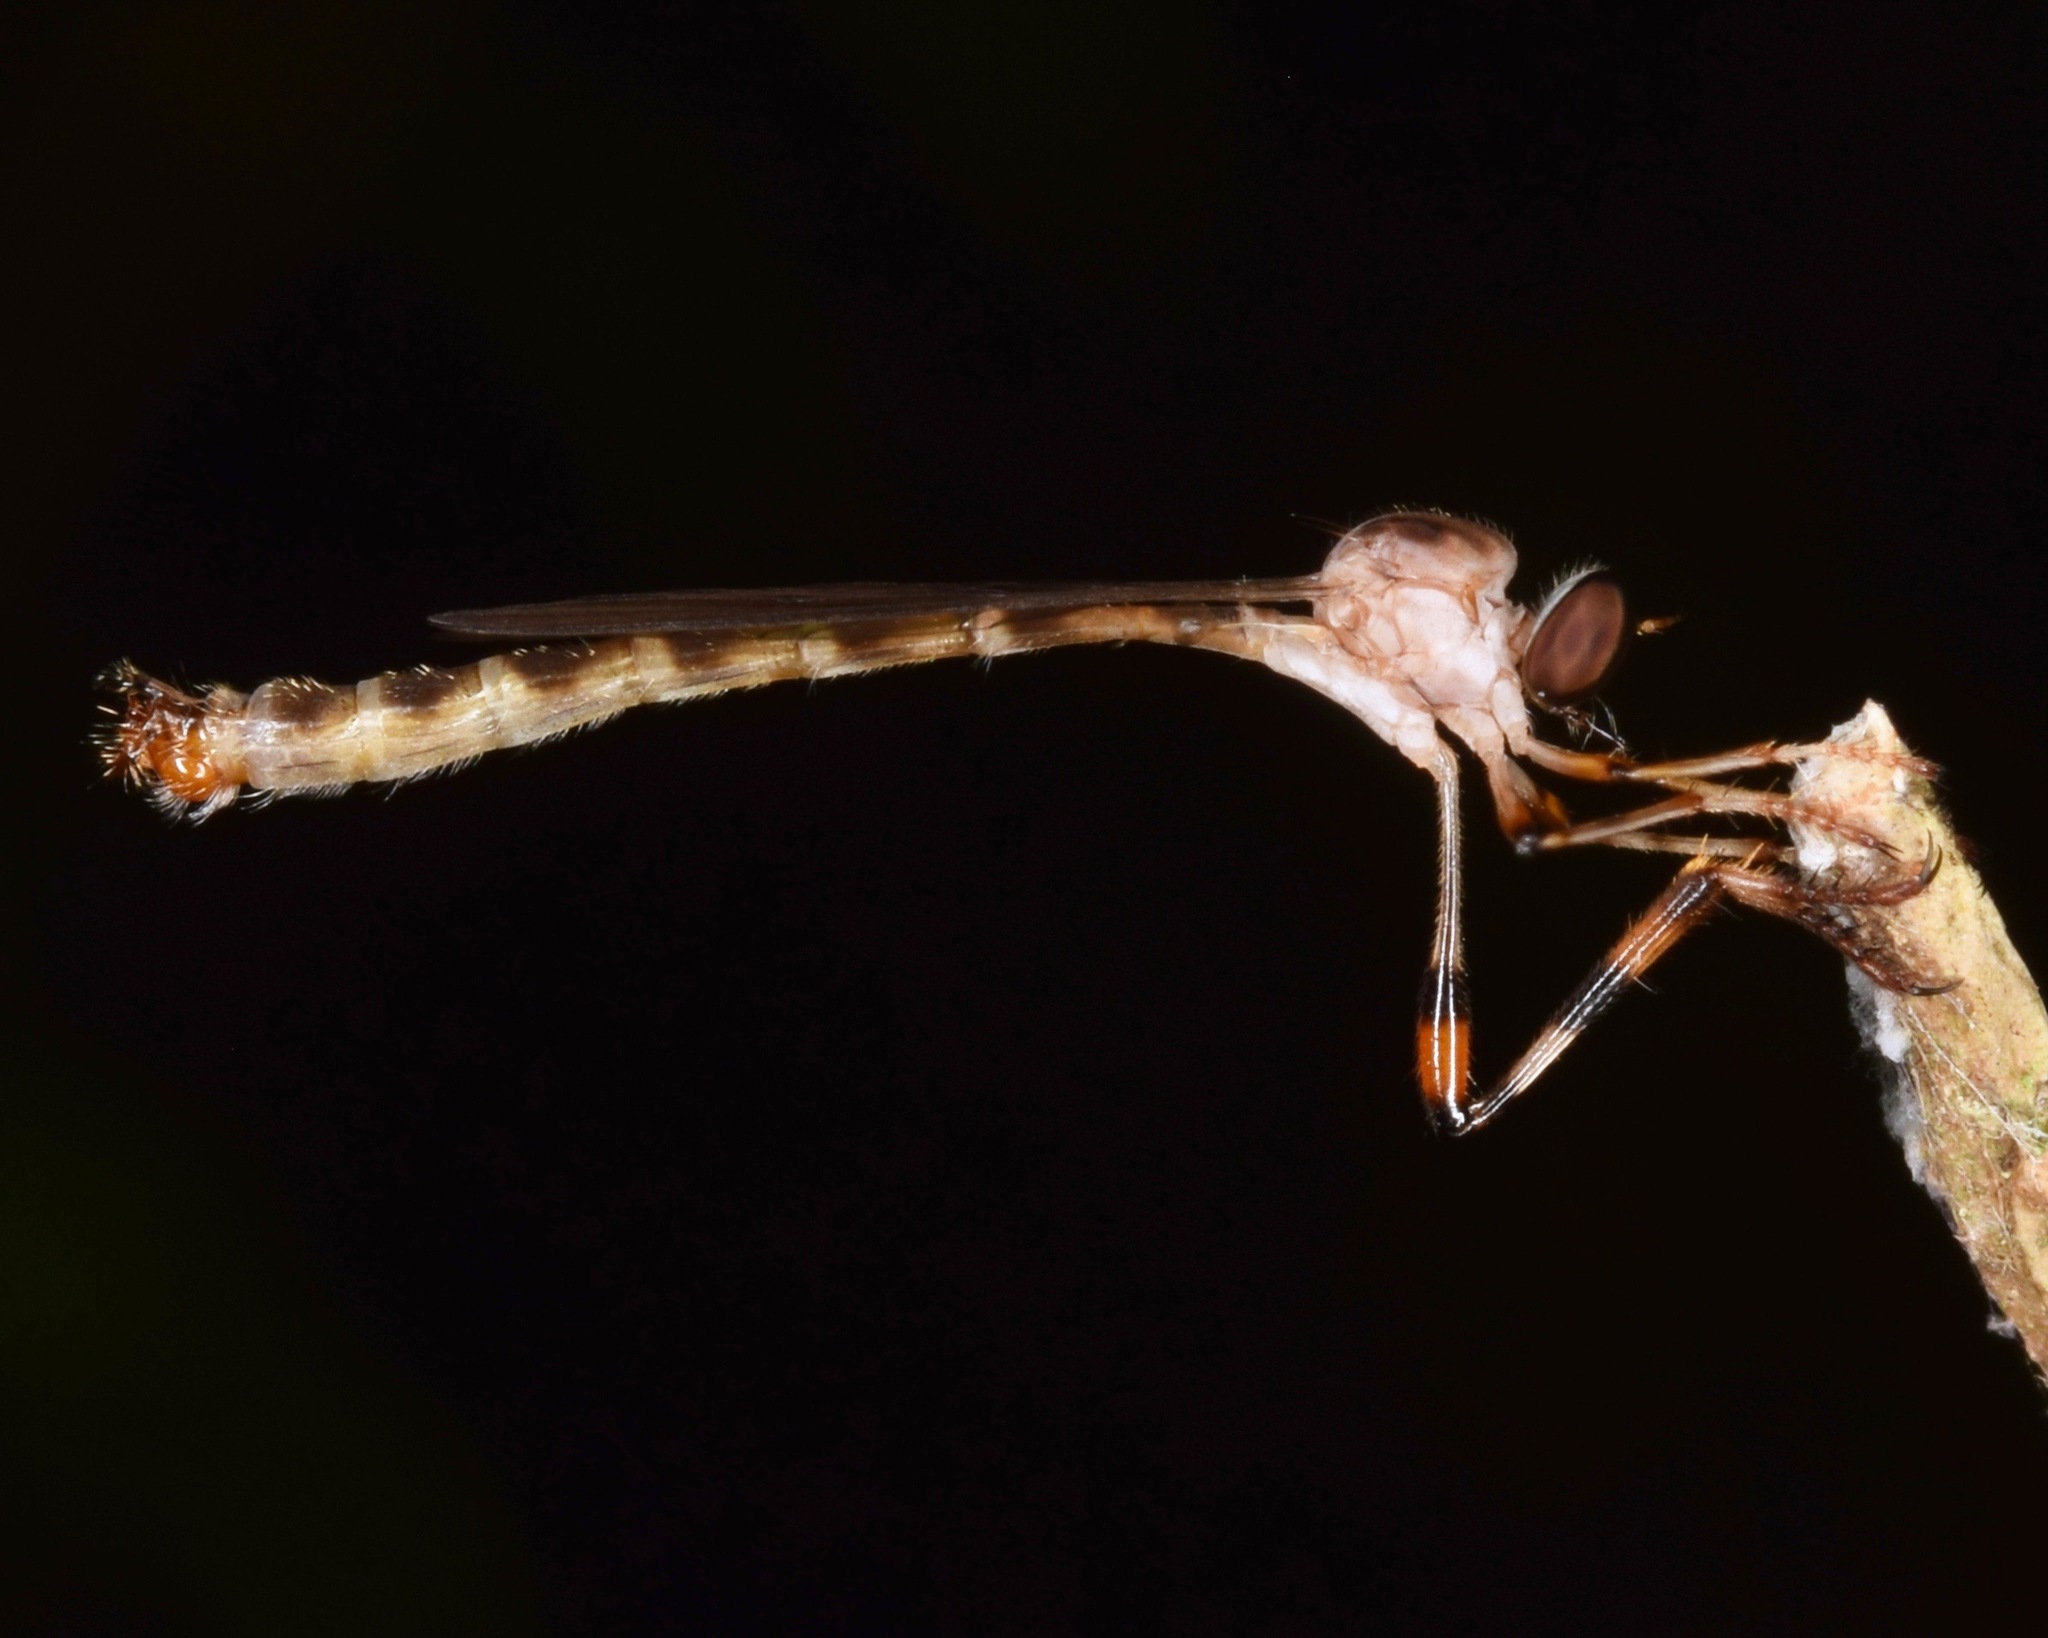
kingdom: Animalia
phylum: Arthropoda
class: Insecta
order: Diptera
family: Asilidae
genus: Psilonyx
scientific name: Psilonyx annulatus
